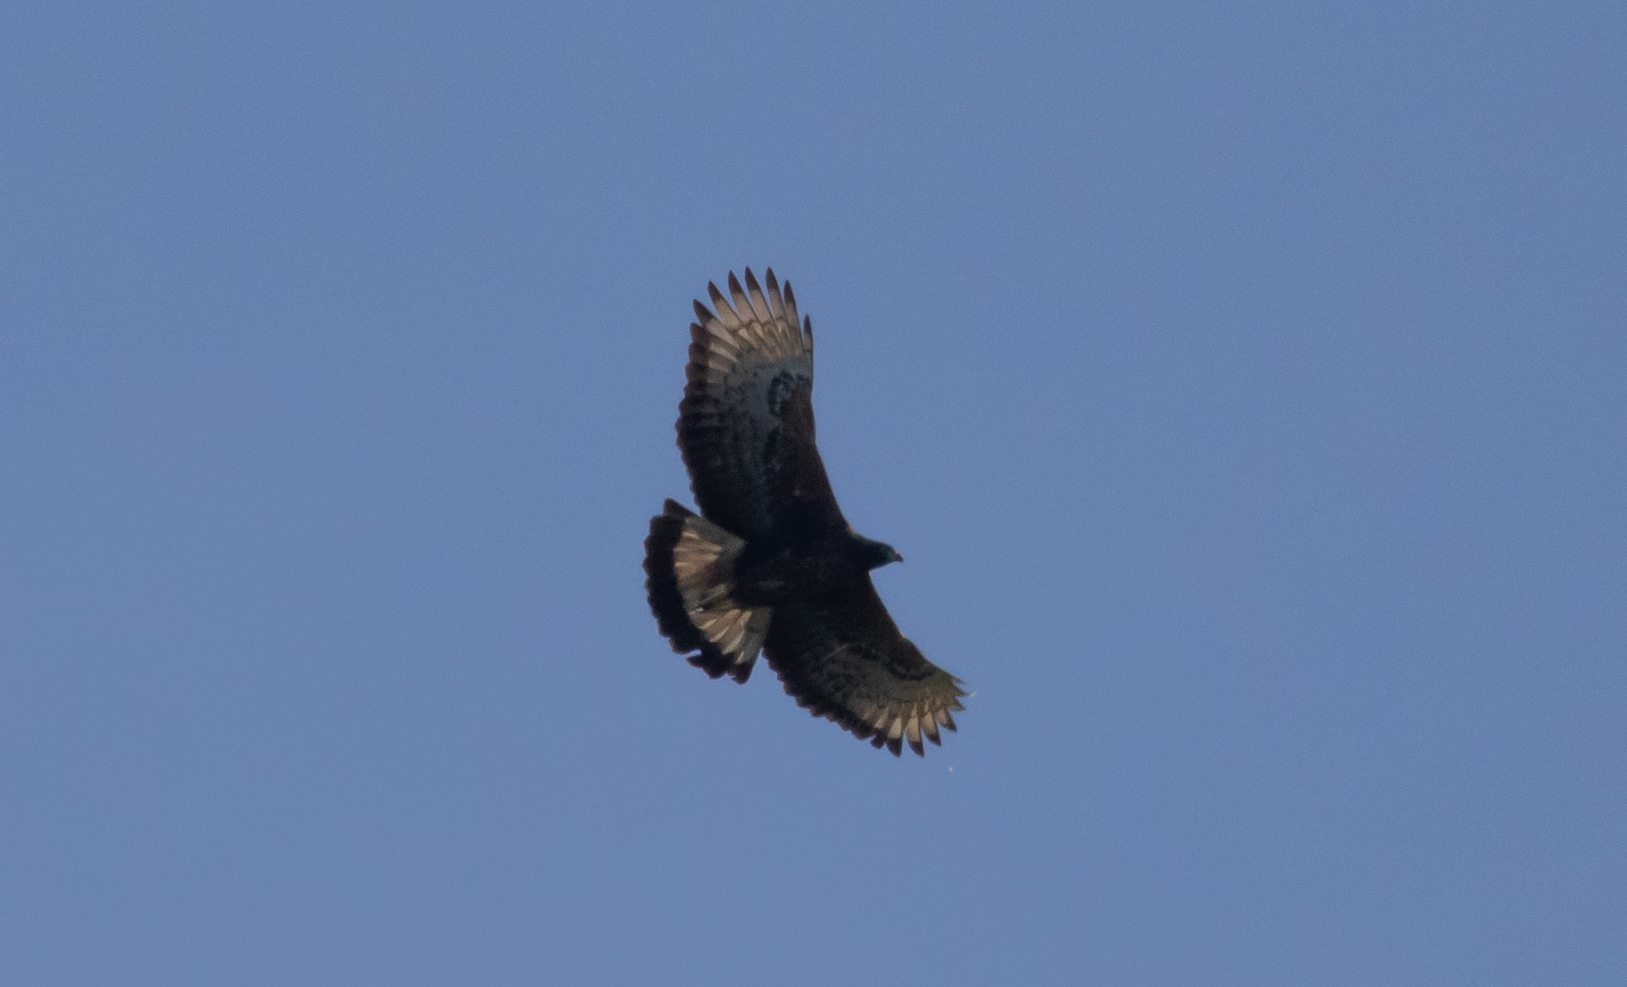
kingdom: Animalia
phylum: Chordata
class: Aves
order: Accipitriformes
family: Accipitridae
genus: Spizaetus
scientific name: Spizaetus isidori
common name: Black-and-chestnut eagle
